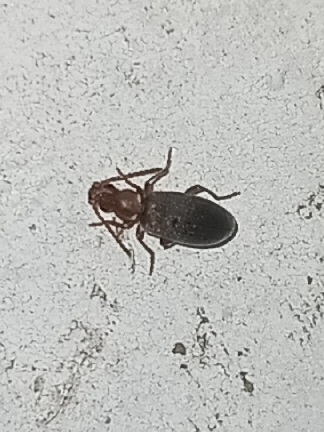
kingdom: Animalia
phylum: Arthropoda
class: Insecta
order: Coleoptera
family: Anthicidae
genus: Notoxus
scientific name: Notoxus murinipennis
